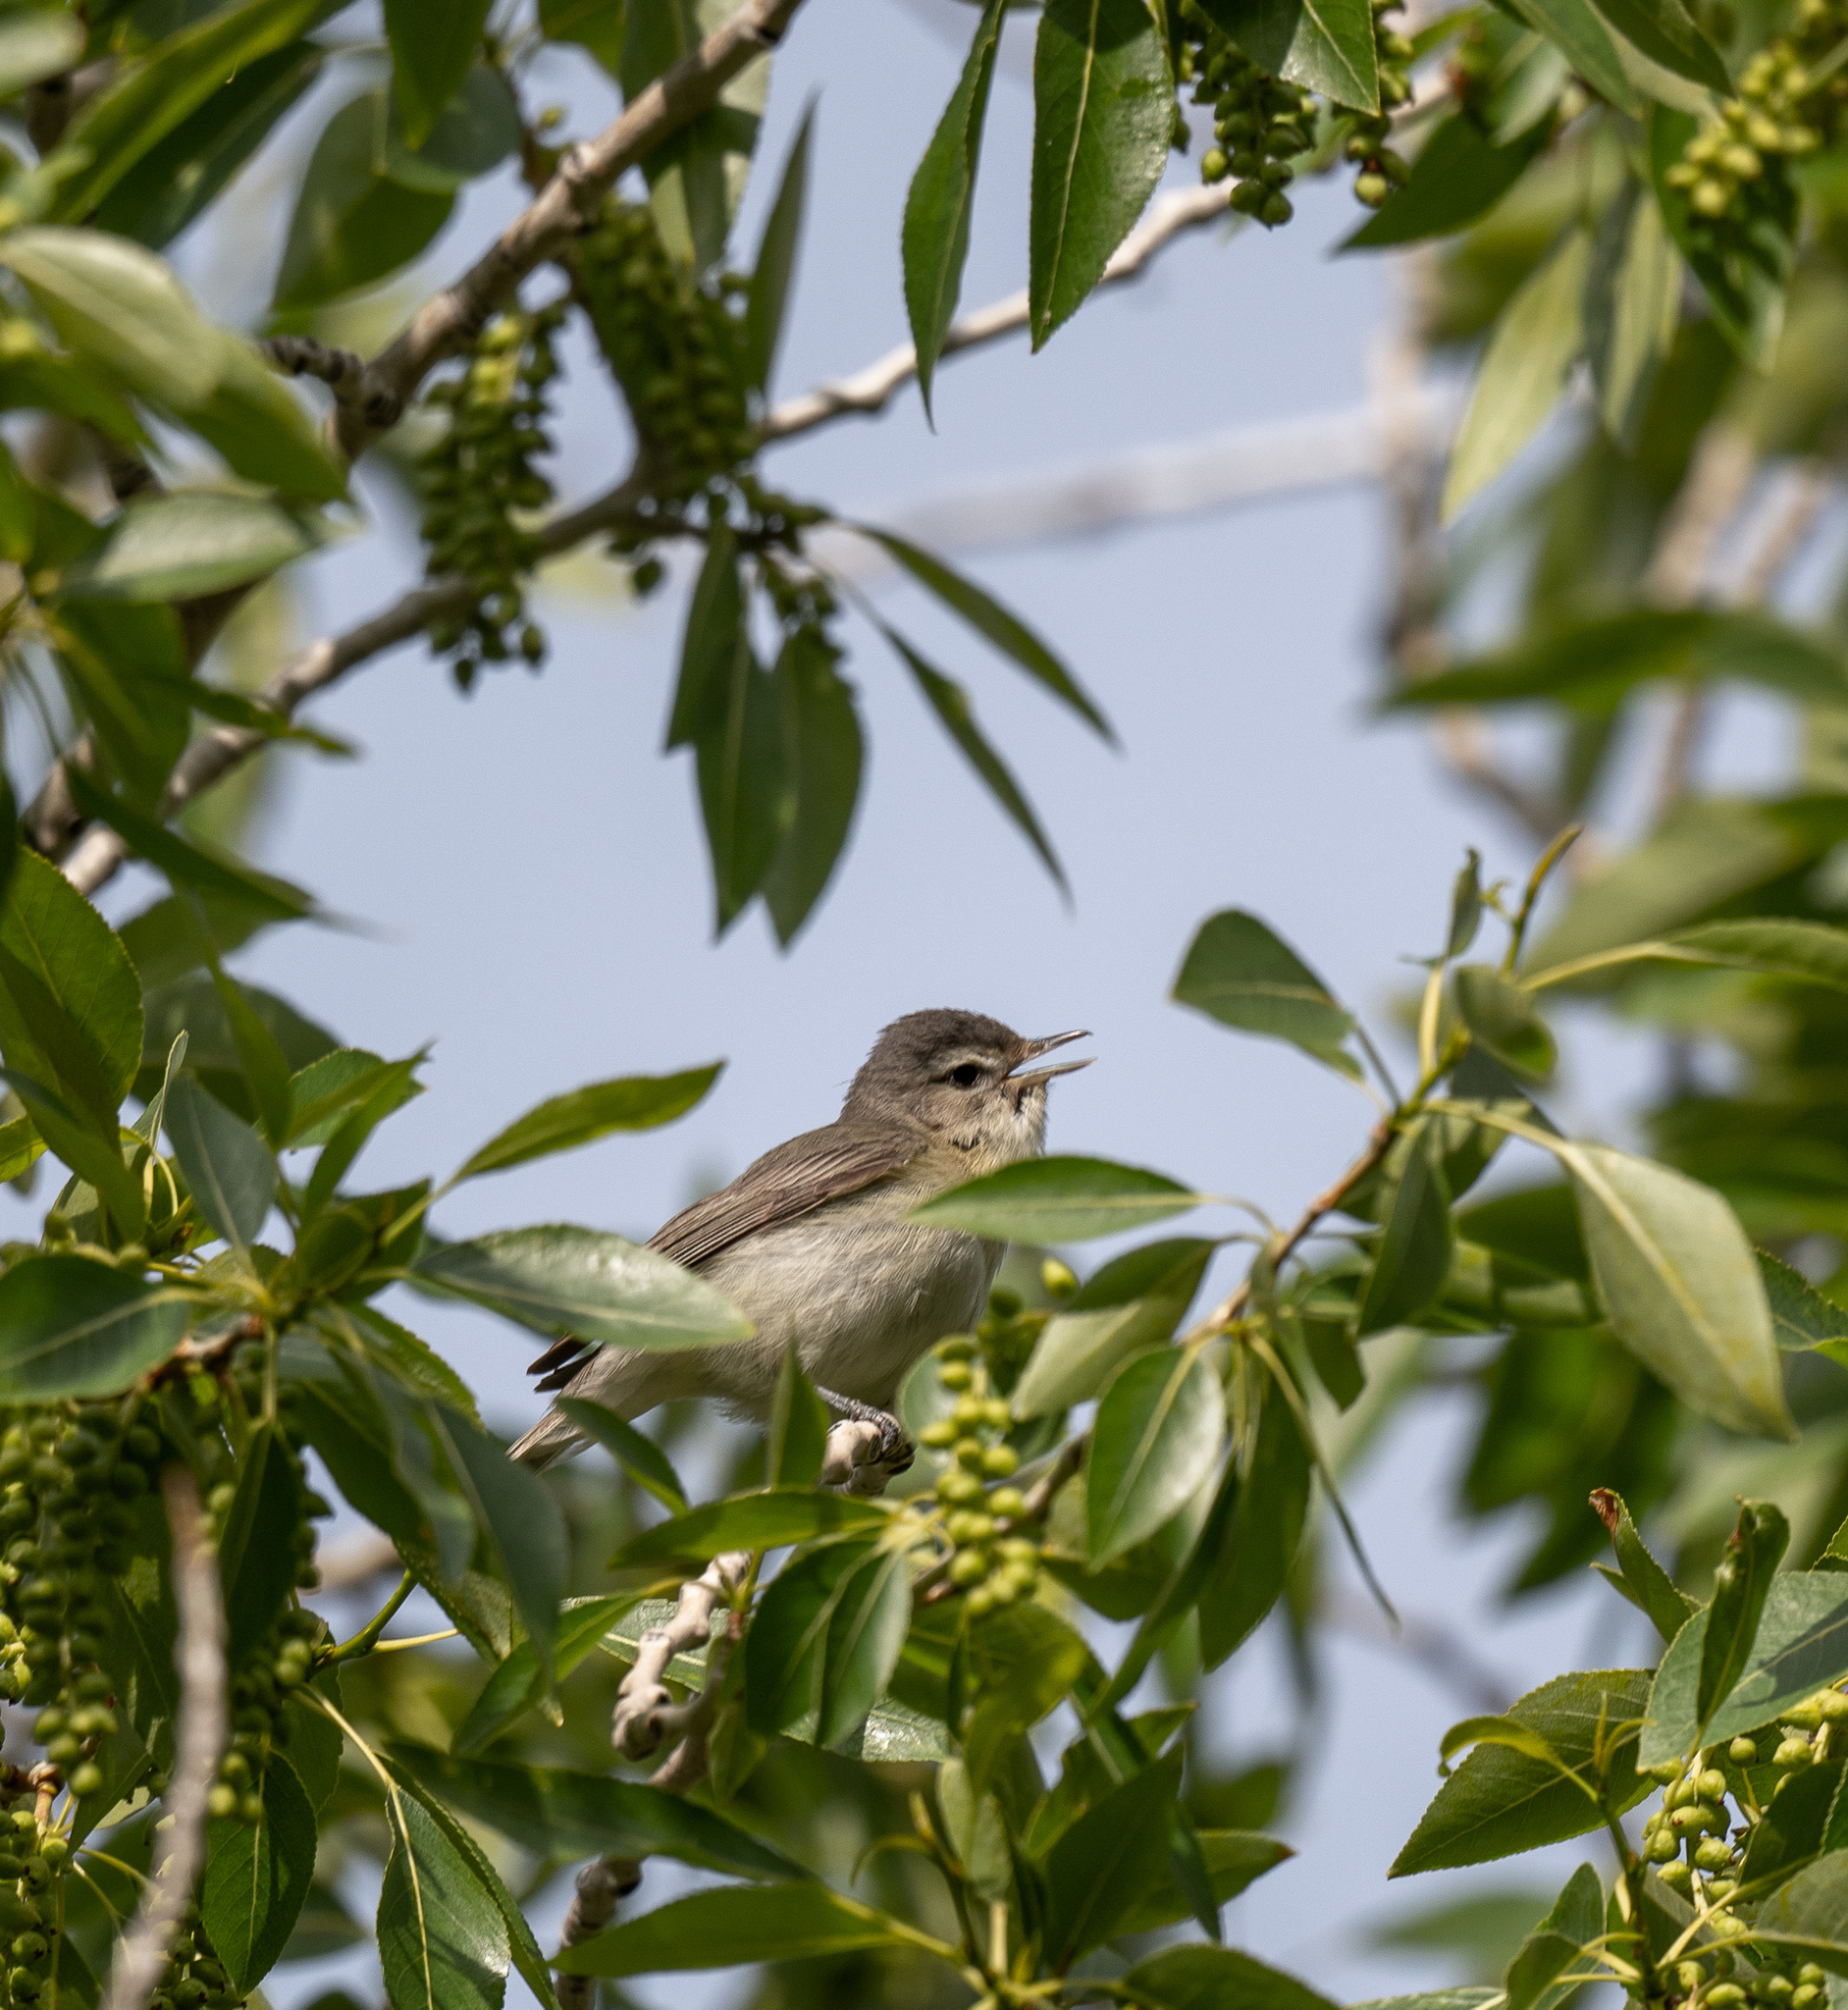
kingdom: Animalia
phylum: Chordata
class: Aves
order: Passeriformes
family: Vireonidae
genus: Vireo
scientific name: Vireo gilvus
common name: Warbling vireo
